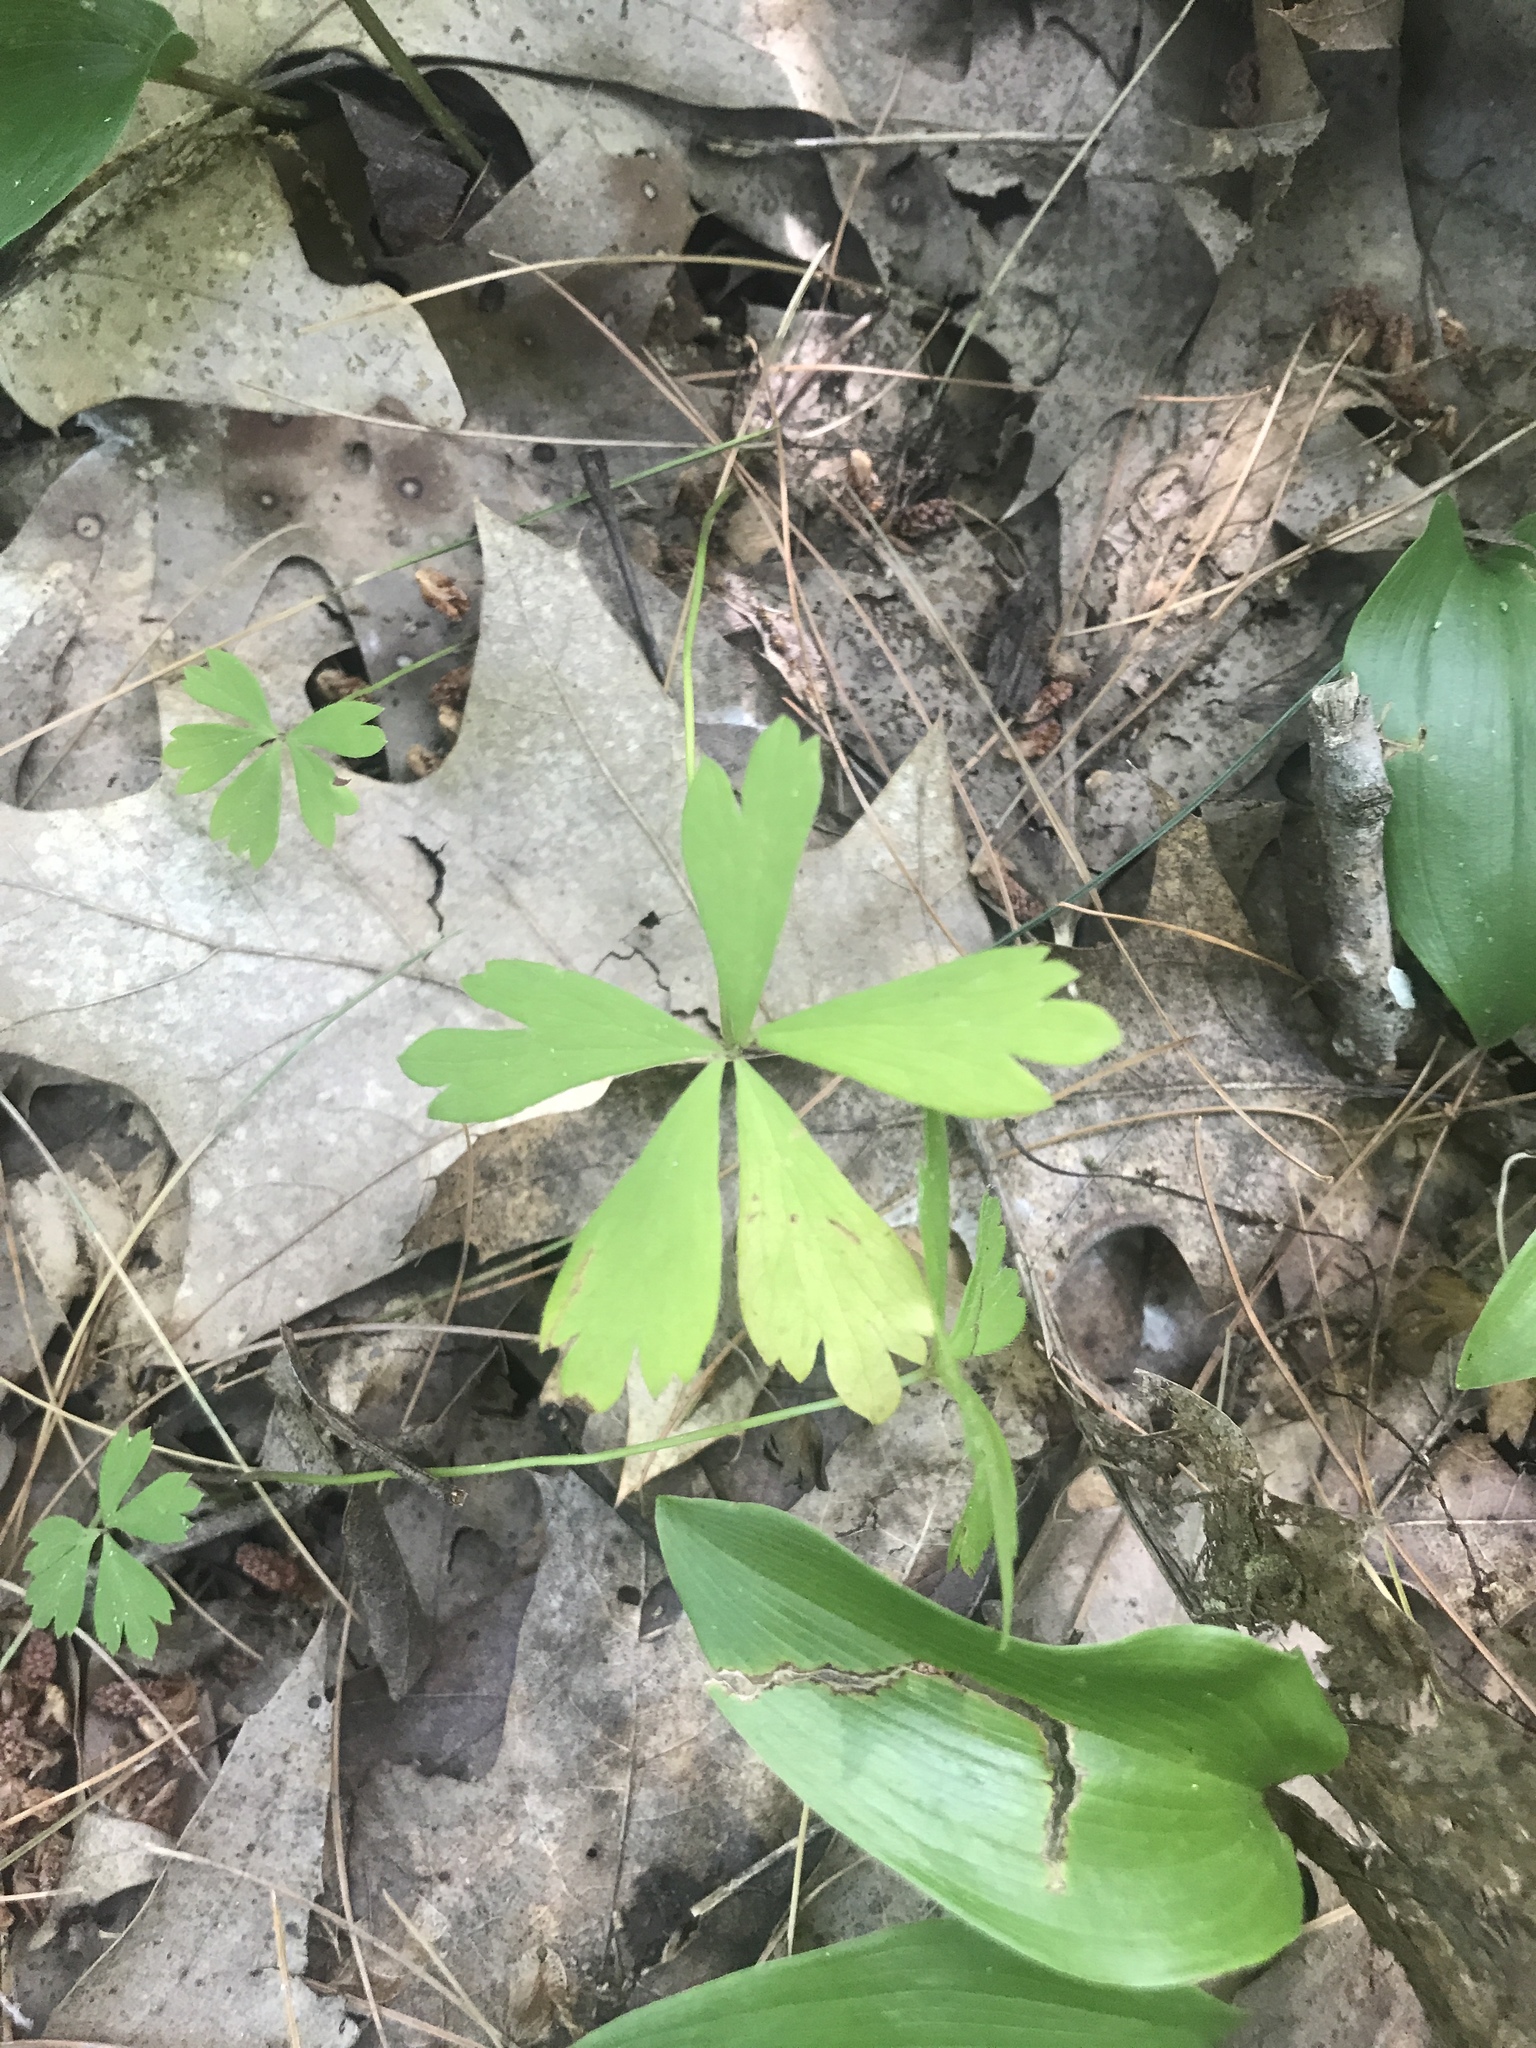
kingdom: Plantae
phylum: Tracheophyta
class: Magnoliopsida
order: Ranunculales
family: Ranunculaceae
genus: Anemone
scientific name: Anemone quinquefolia
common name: Wood anemone
